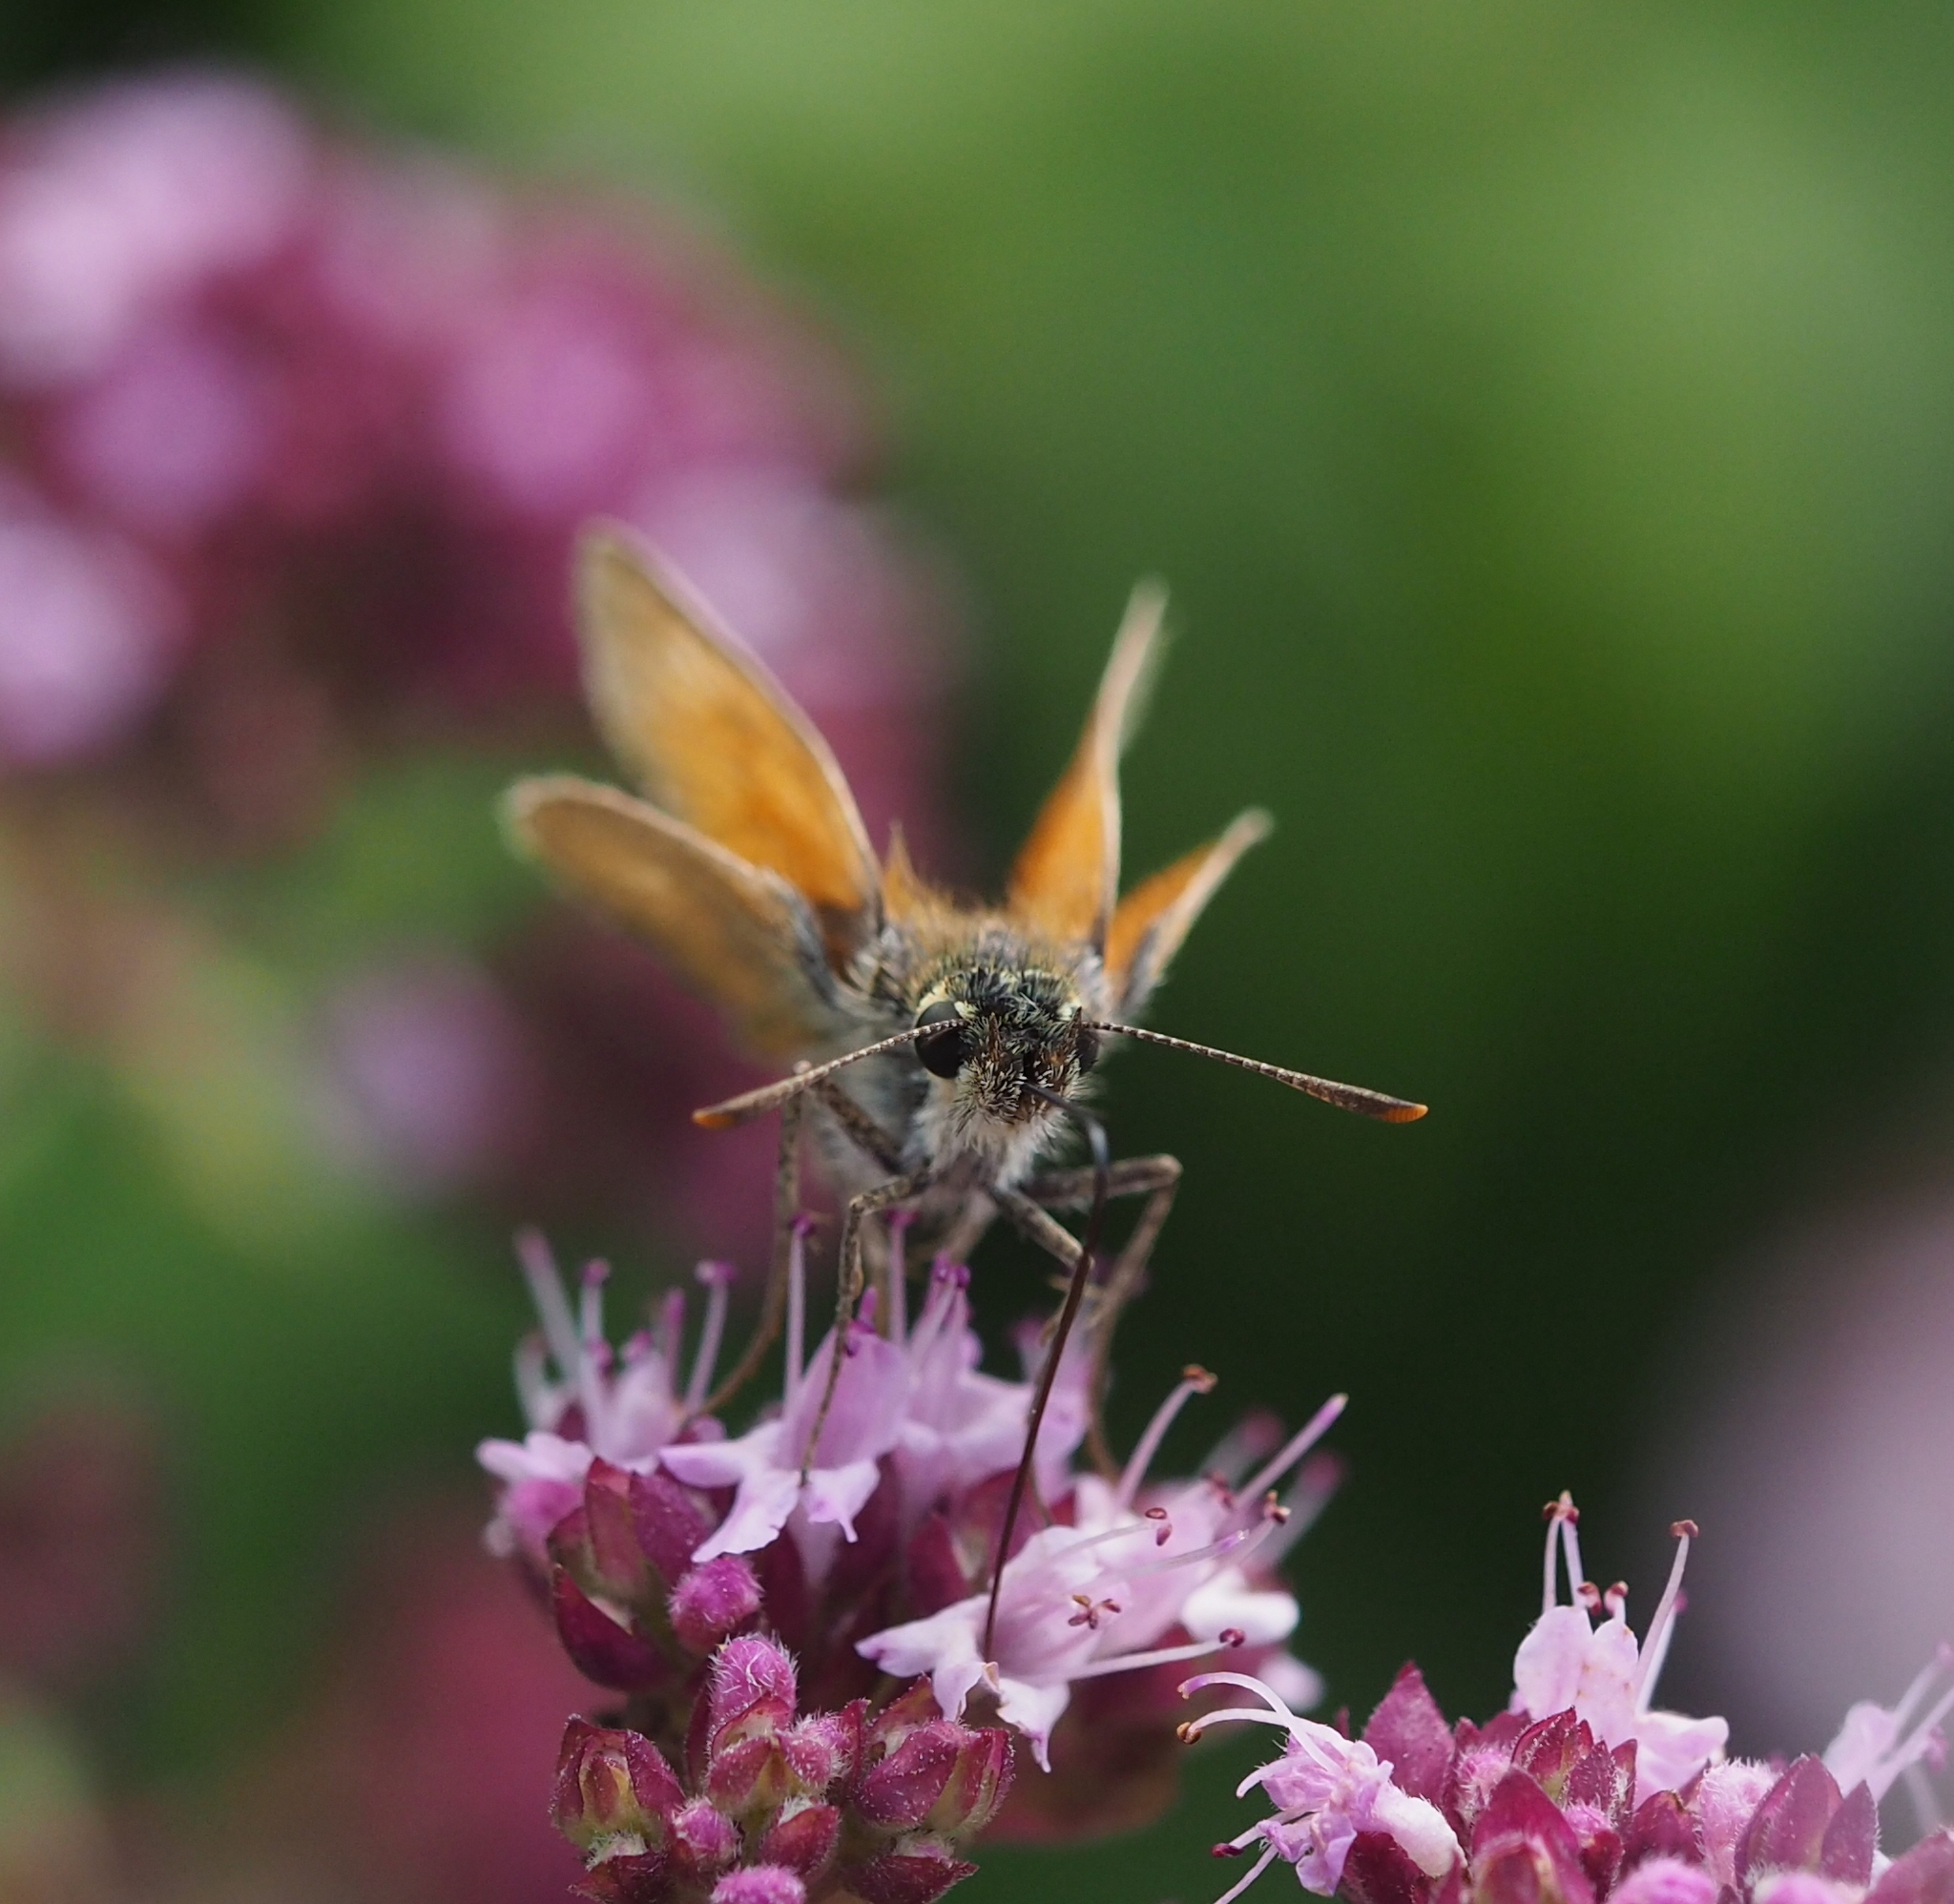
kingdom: Animalia
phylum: Arthropoda
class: Insecta
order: Lepidoptera
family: Hesperiidae
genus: Thymelicus
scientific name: Thymelicus sylvestris
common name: Small skipper
